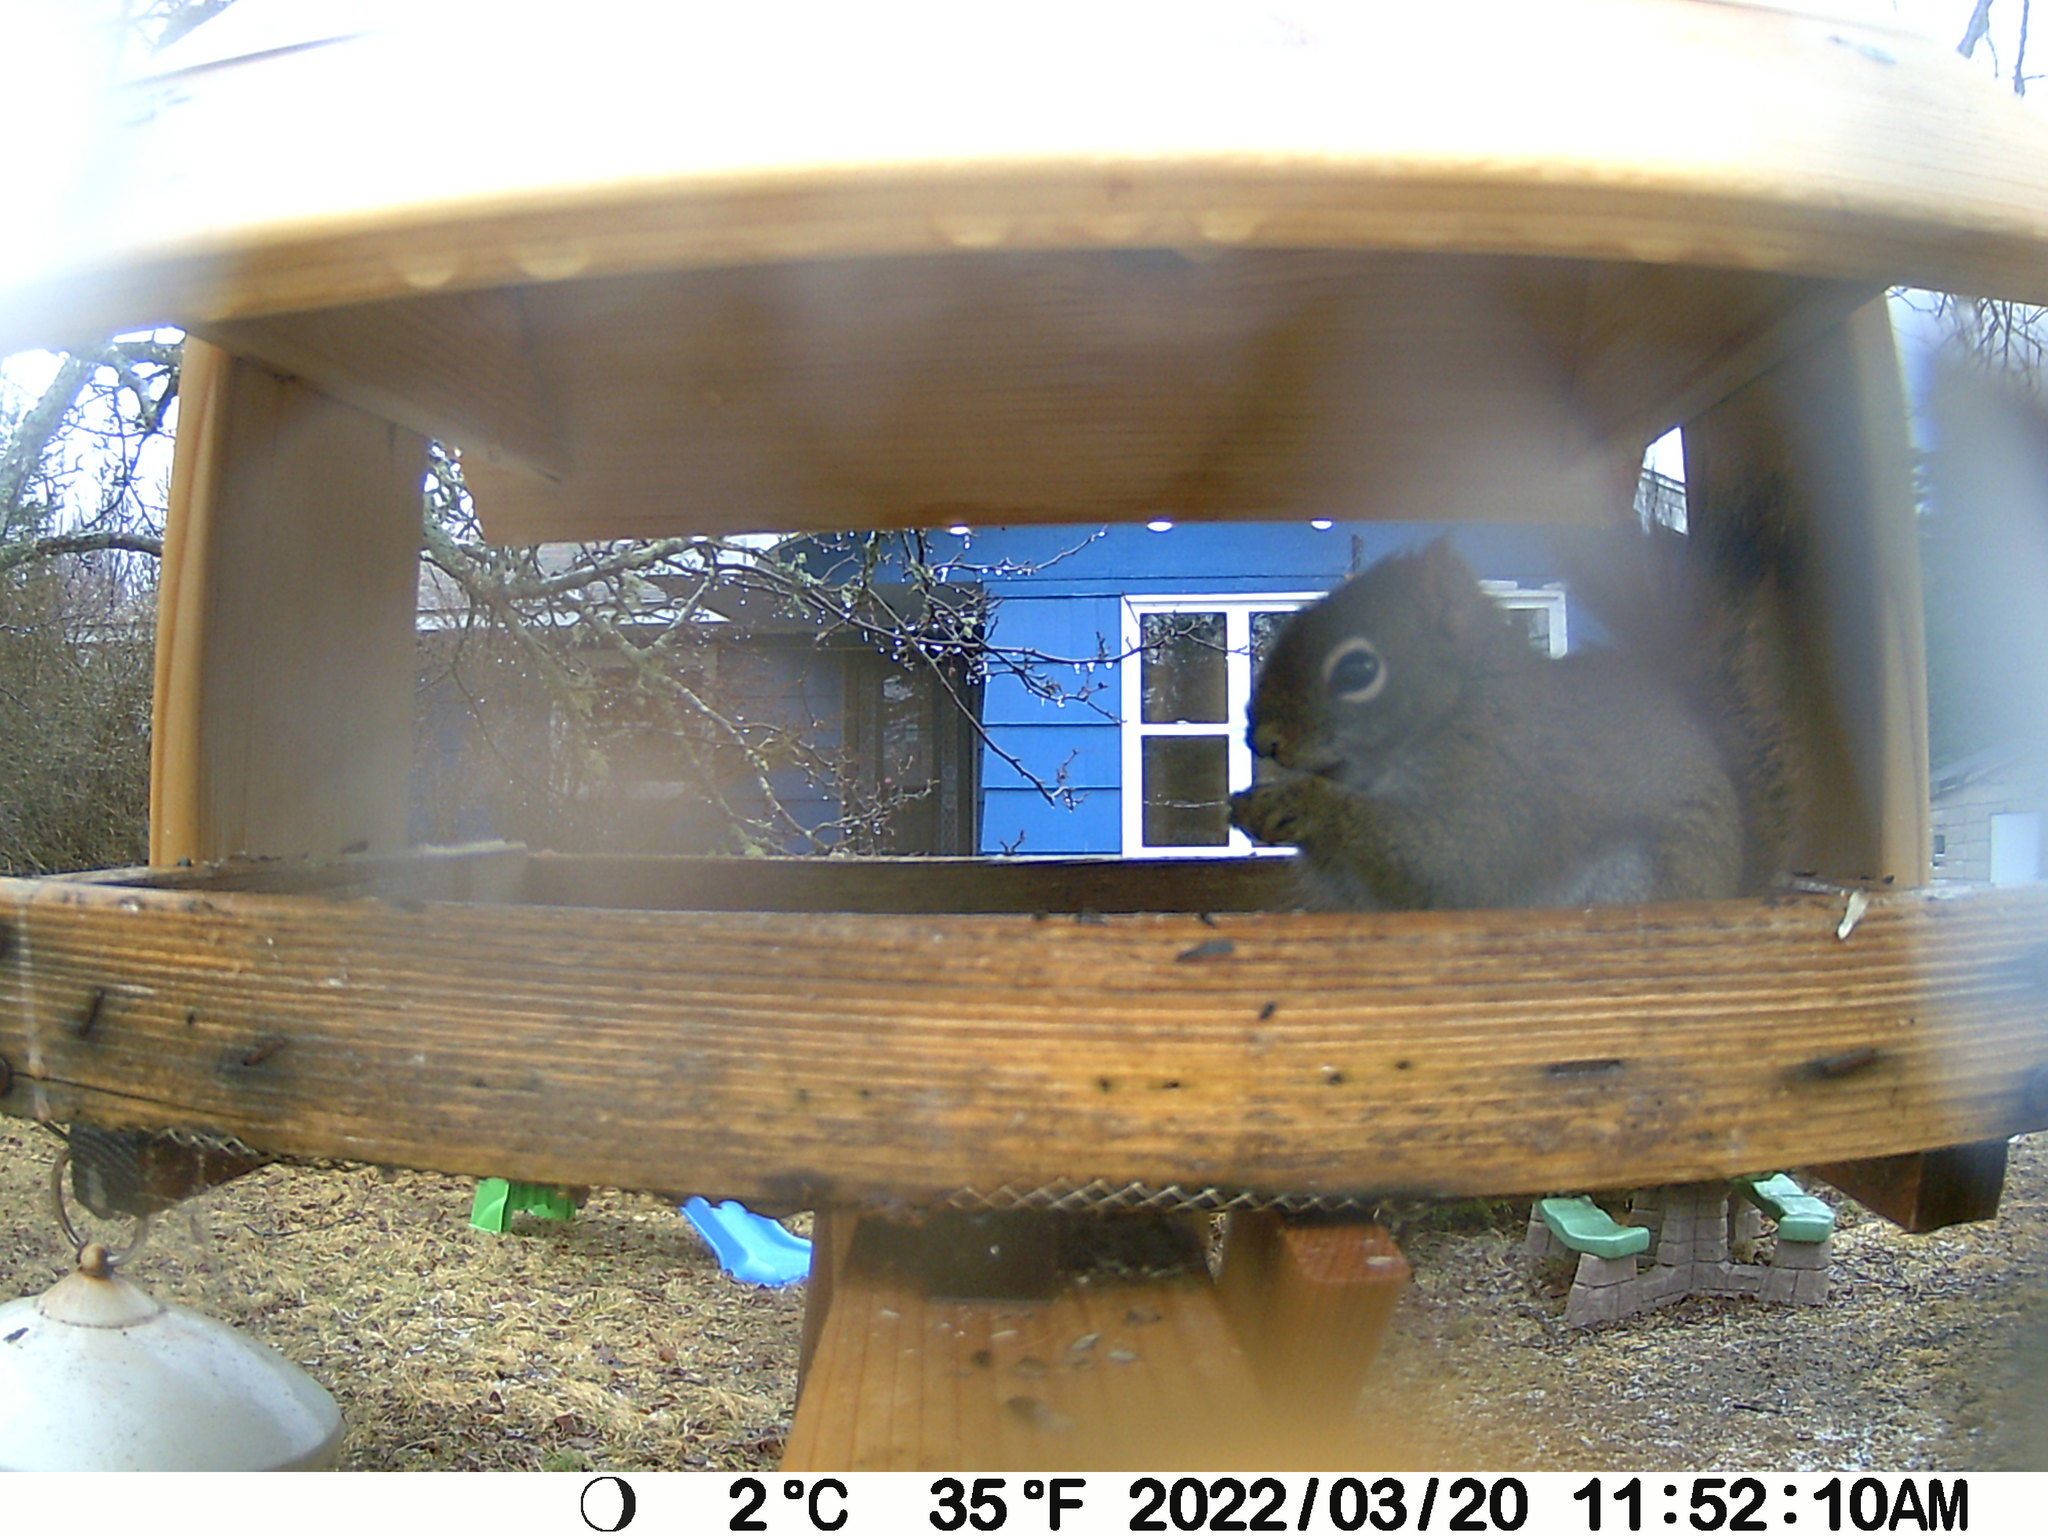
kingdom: Animalia
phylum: Chordata
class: Mammalia
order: Rodentia
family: Sciuridae
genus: Tamiasciurus
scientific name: Tamiasciurus hudsonicus
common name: Red squirrel
